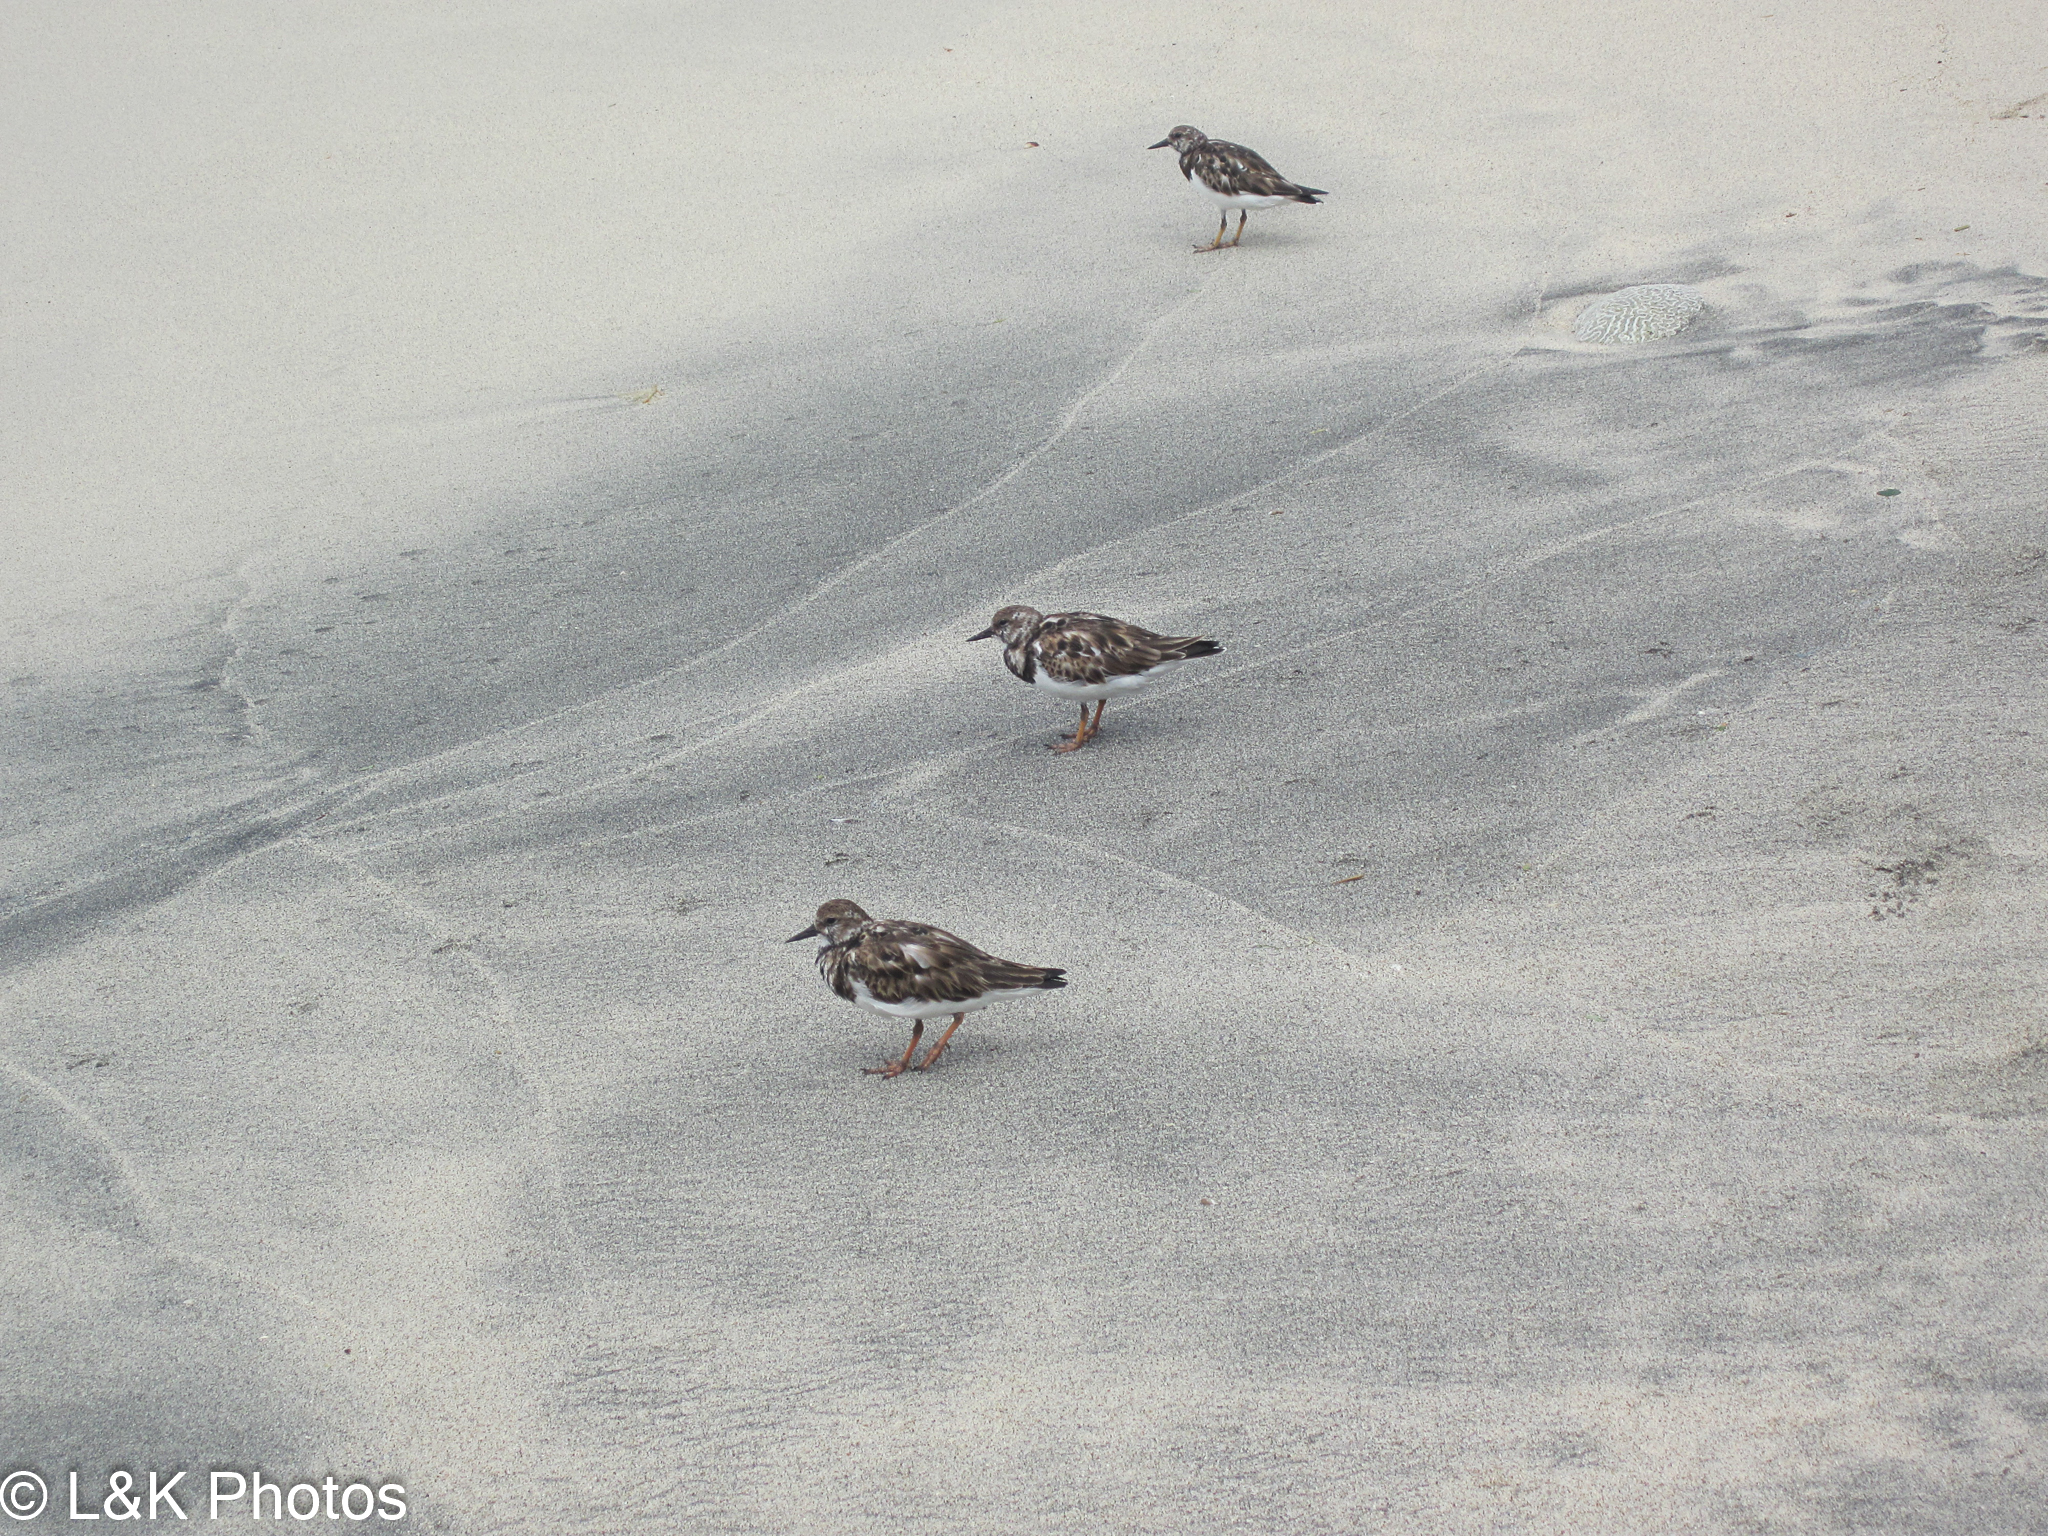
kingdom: Animalia
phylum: Chordata
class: Aves
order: Charadriiformes
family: Scolopacidae
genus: Arenaria
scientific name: Arenaria interpres
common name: Ruddy turnstone
